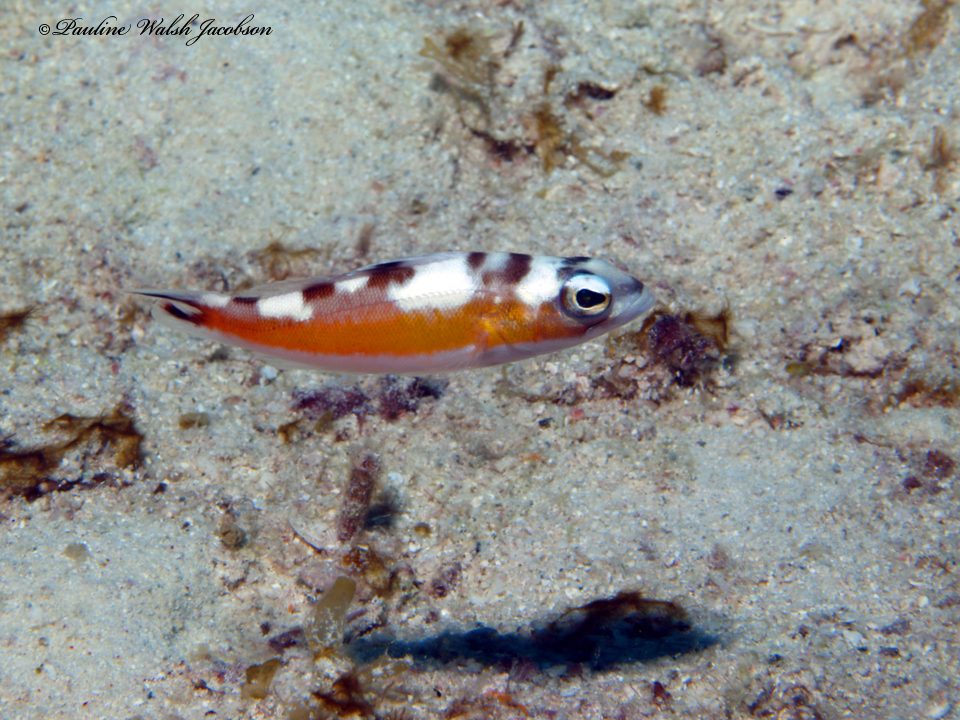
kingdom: Animalia
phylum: Chordata
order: Perciformes
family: Serranidae
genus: Serranus
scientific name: Serranus tabacarius
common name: Tobaccofish
